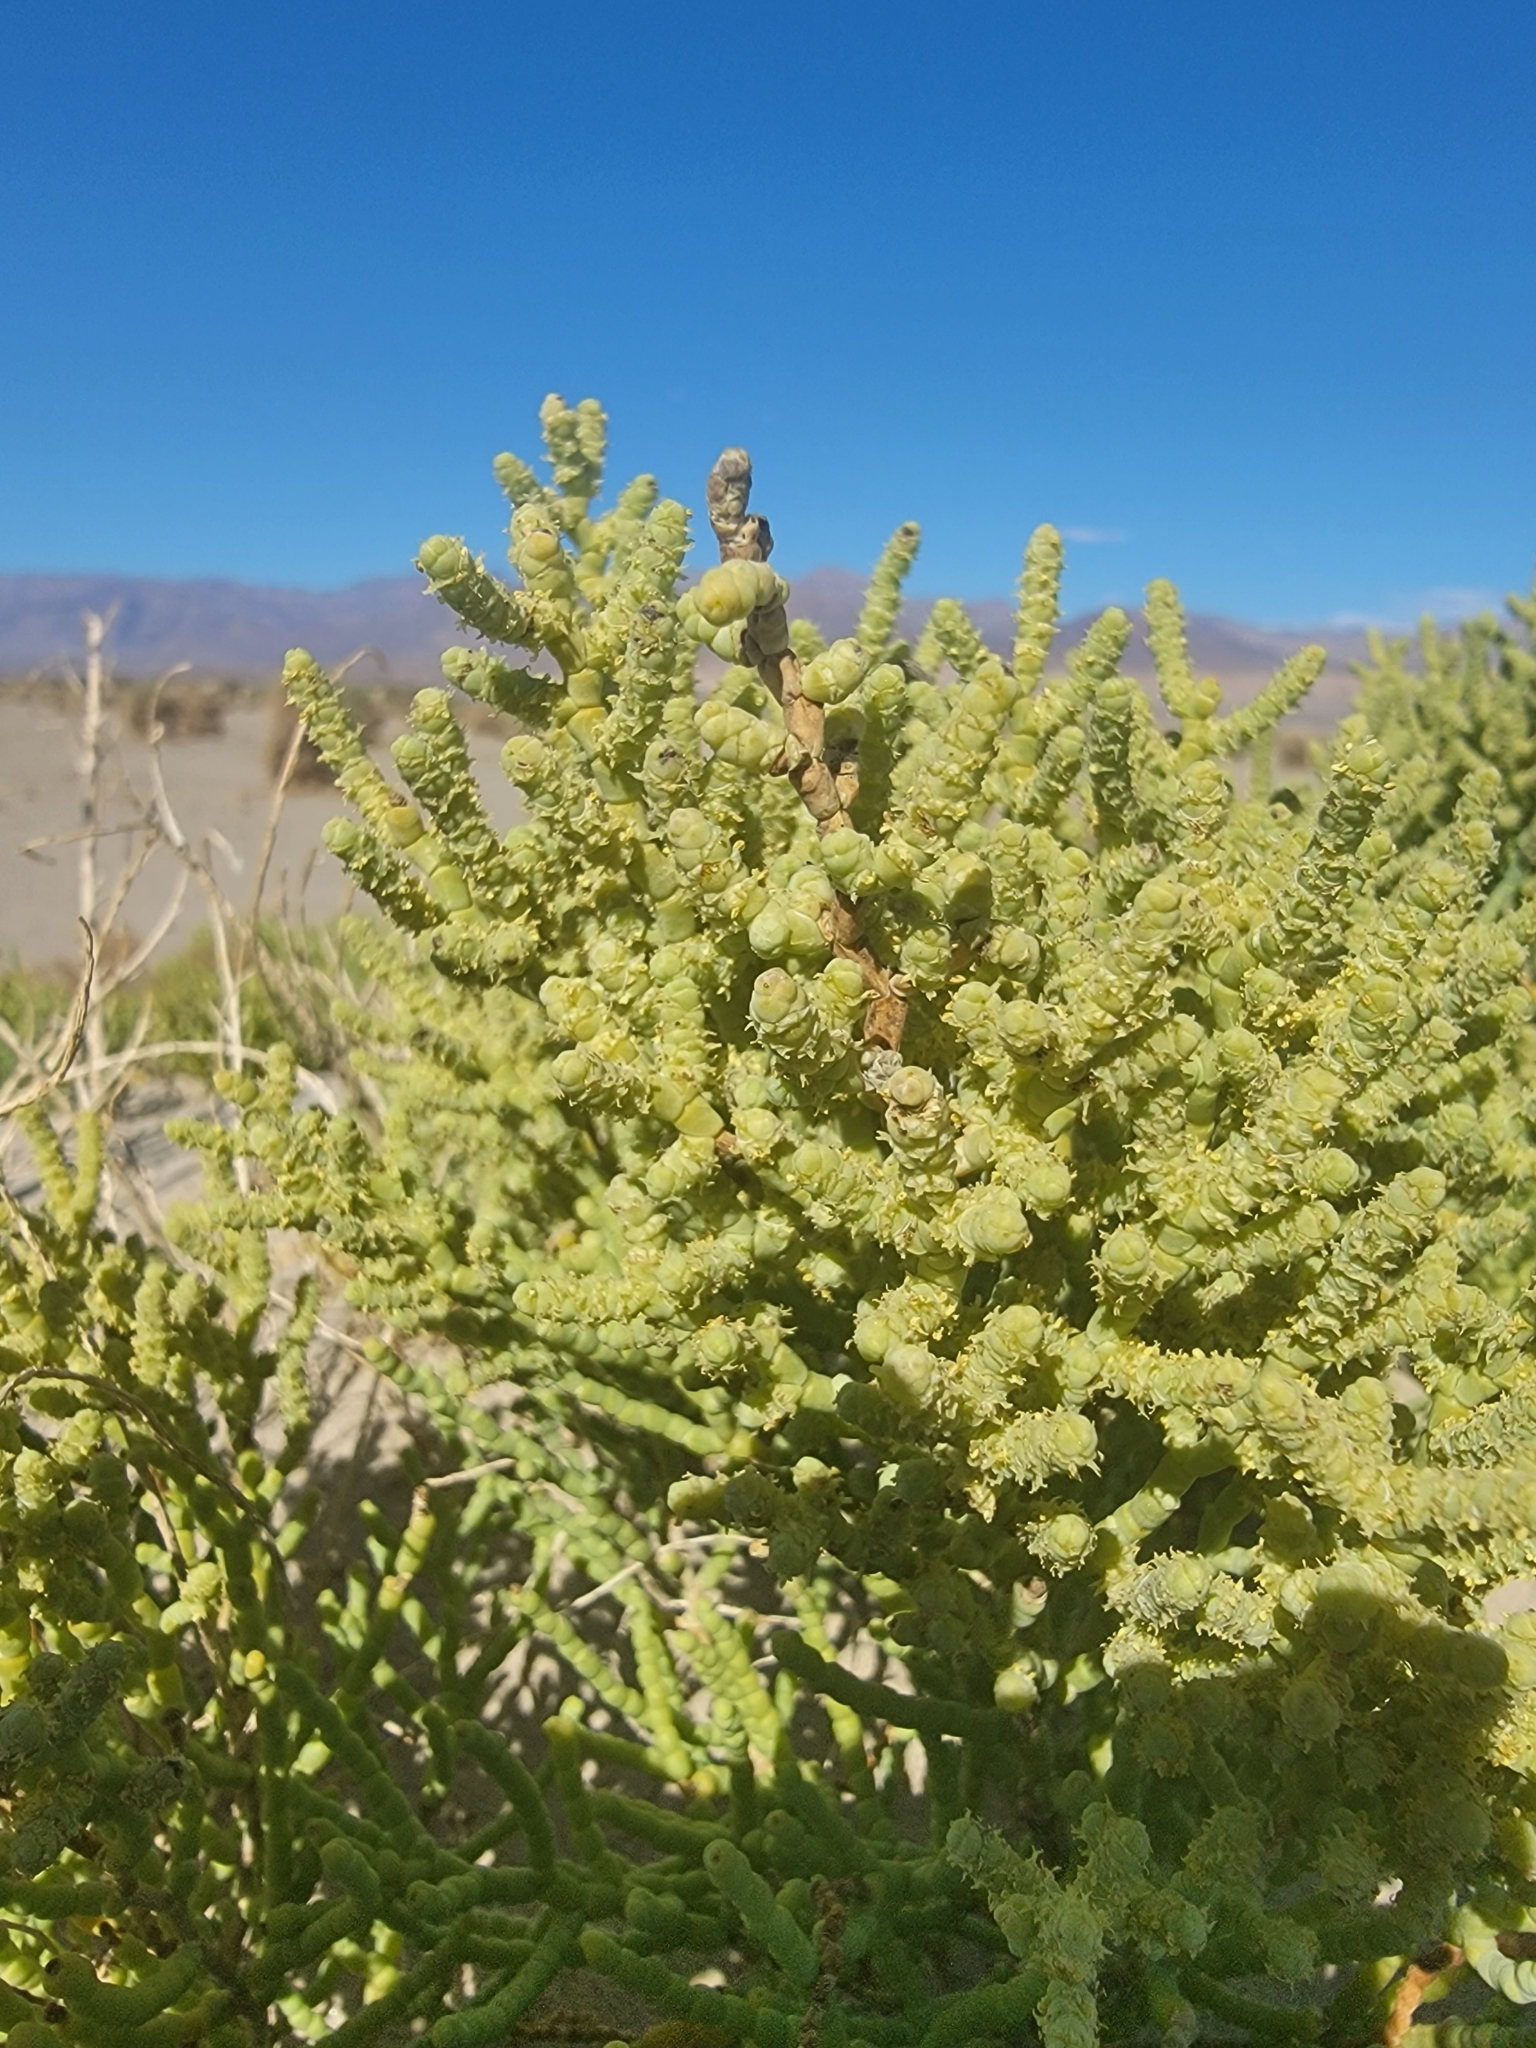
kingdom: Plantae
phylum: Tracheophyta
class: Magnoliopsida
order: Caryophyllales
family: Amaranthaceae
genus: Allenrolfea
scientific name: Allenrolfea occidentalis
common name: Iodine-bush
